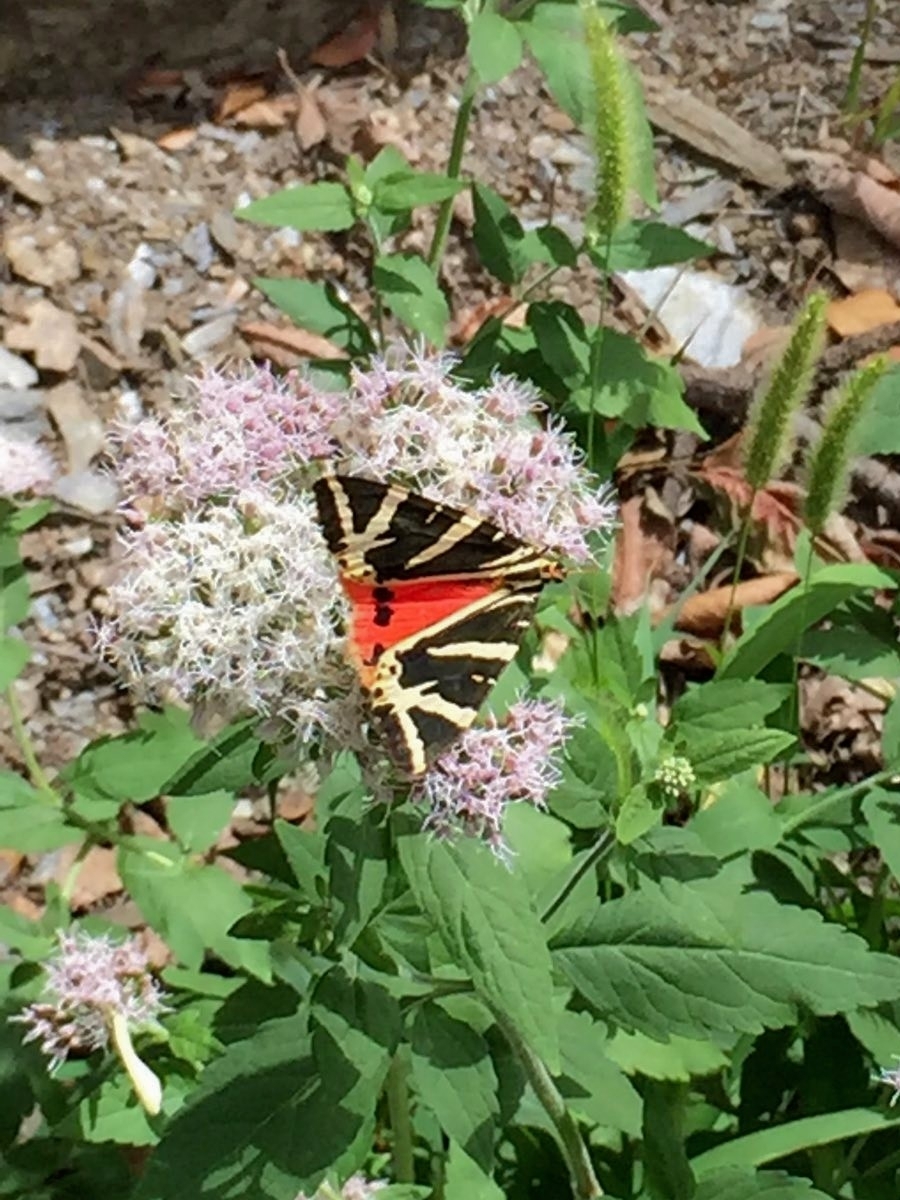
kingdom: Animalia
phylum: Arthropoda
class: Insecta
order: Lepidoptera
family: Erebidae
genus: Euplagia
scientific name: Euplagia quadripunctaria
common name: Jersey tiger
